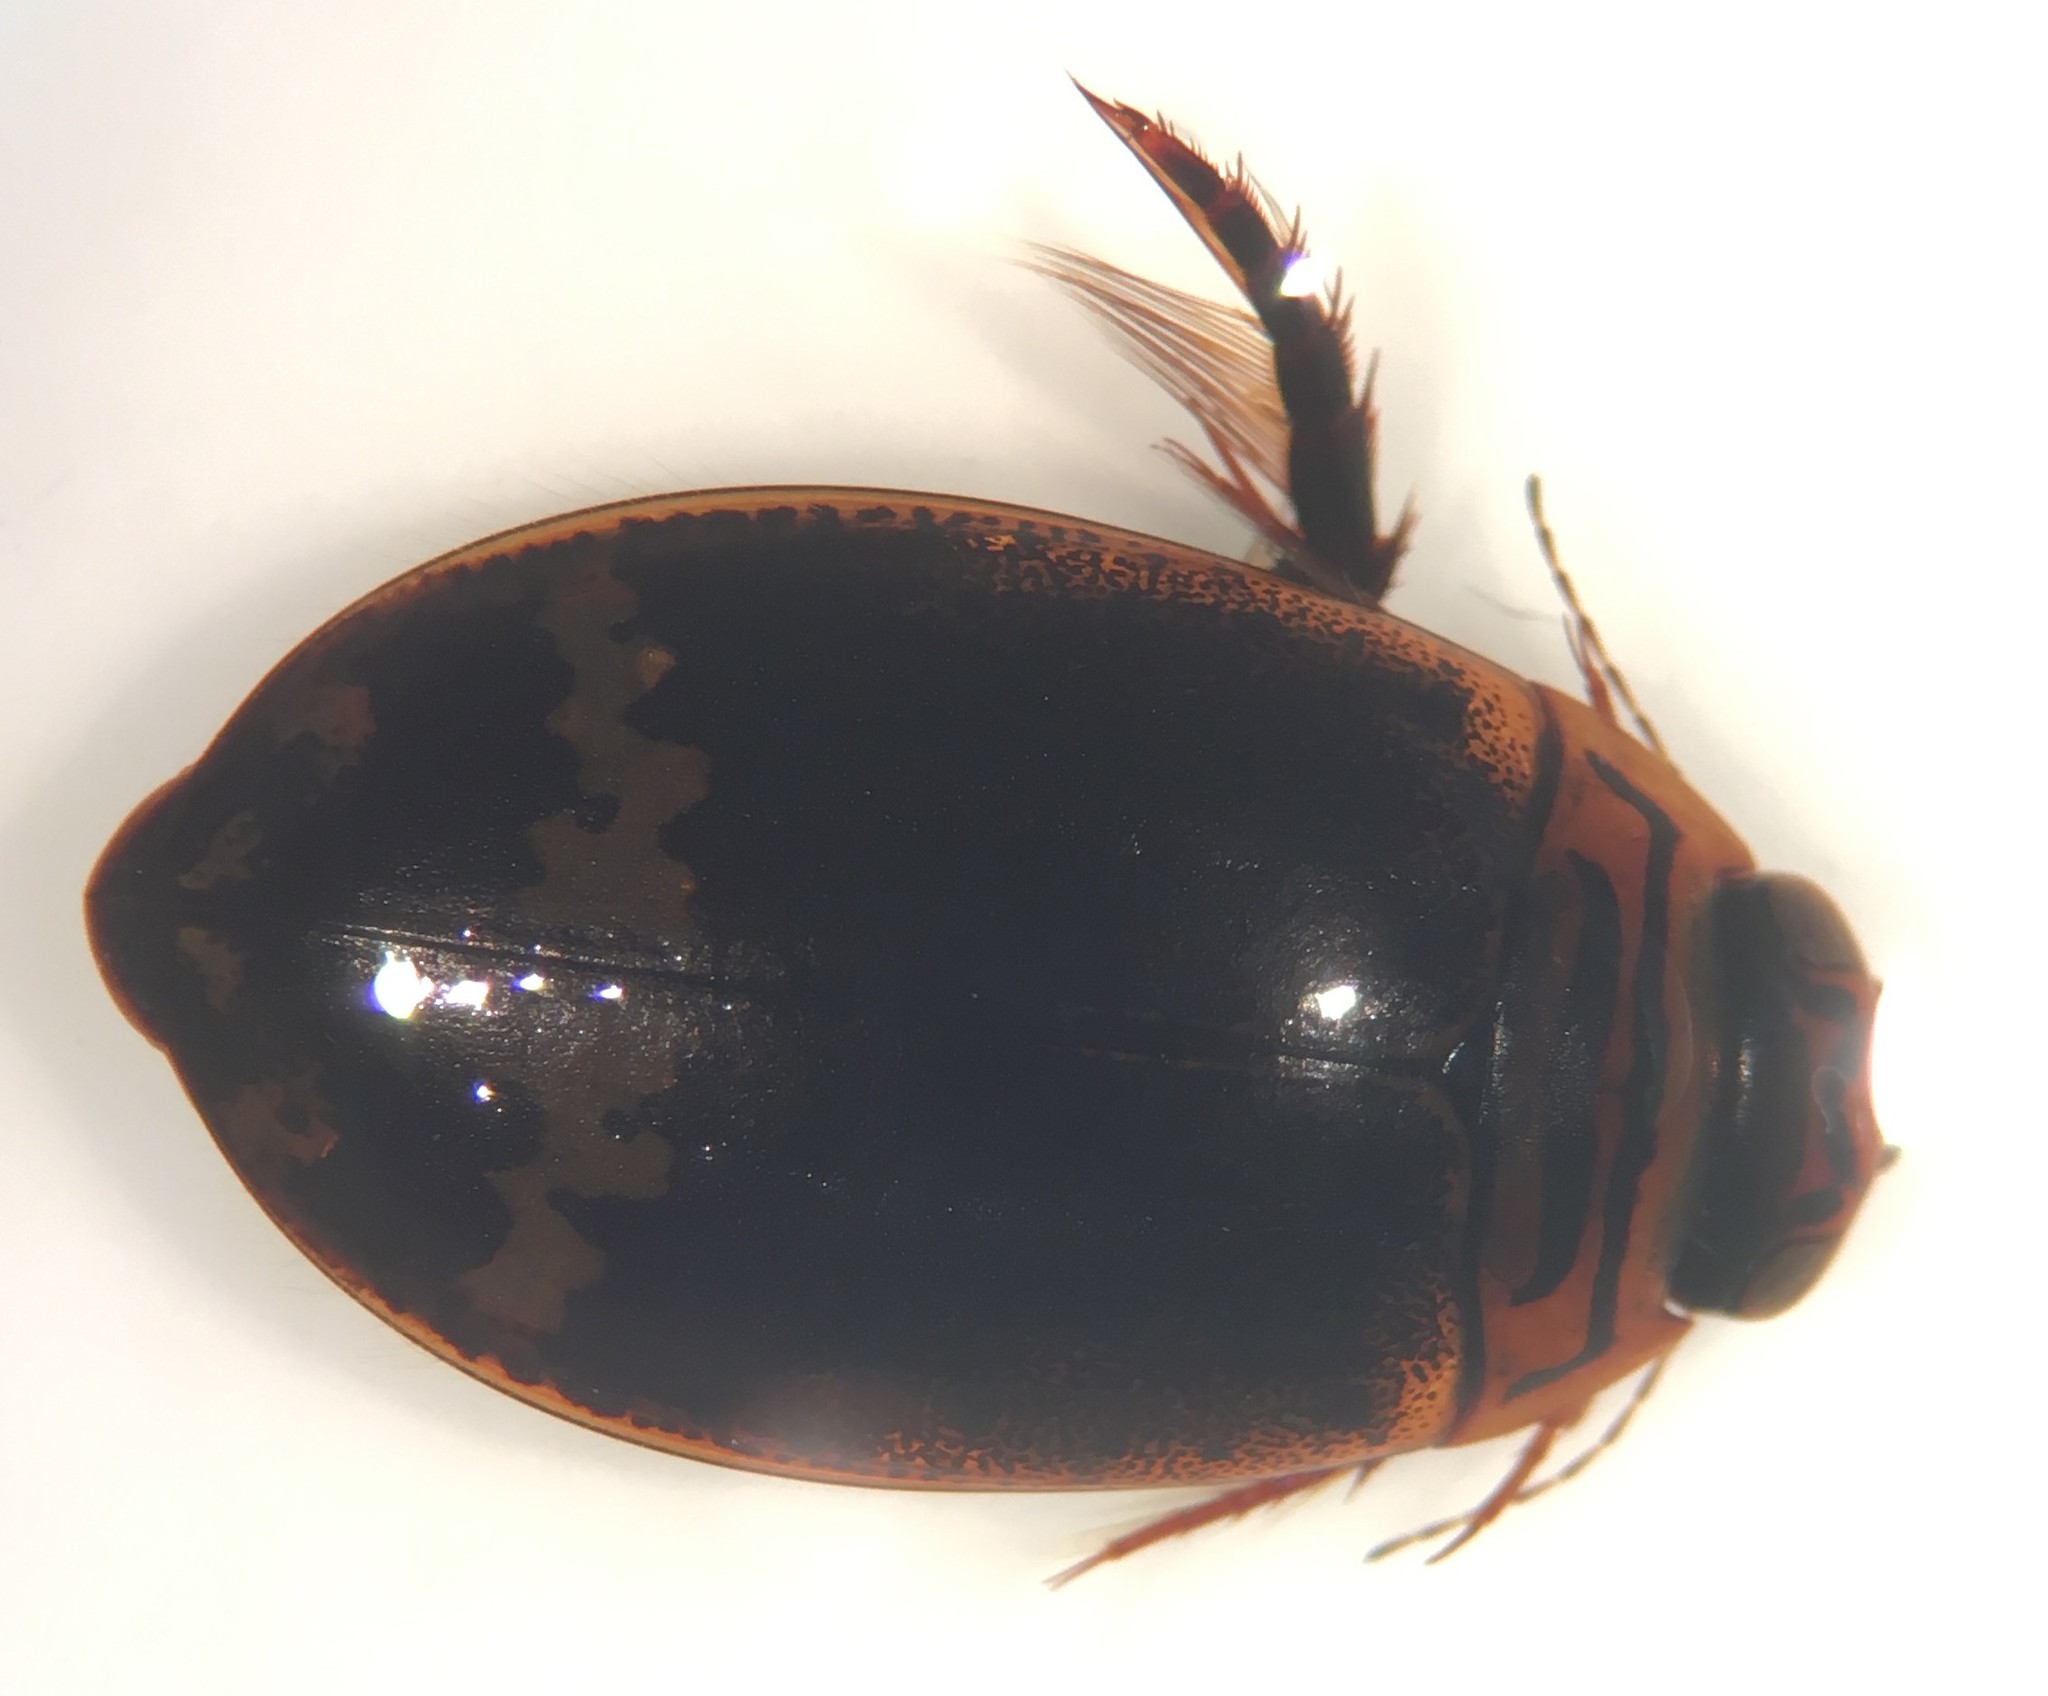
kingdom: Animalia
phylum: Arthropoda
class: Insecta
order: Coleoptera
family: Dytiscidae
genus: Acilius
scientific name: Acilius mediatus
